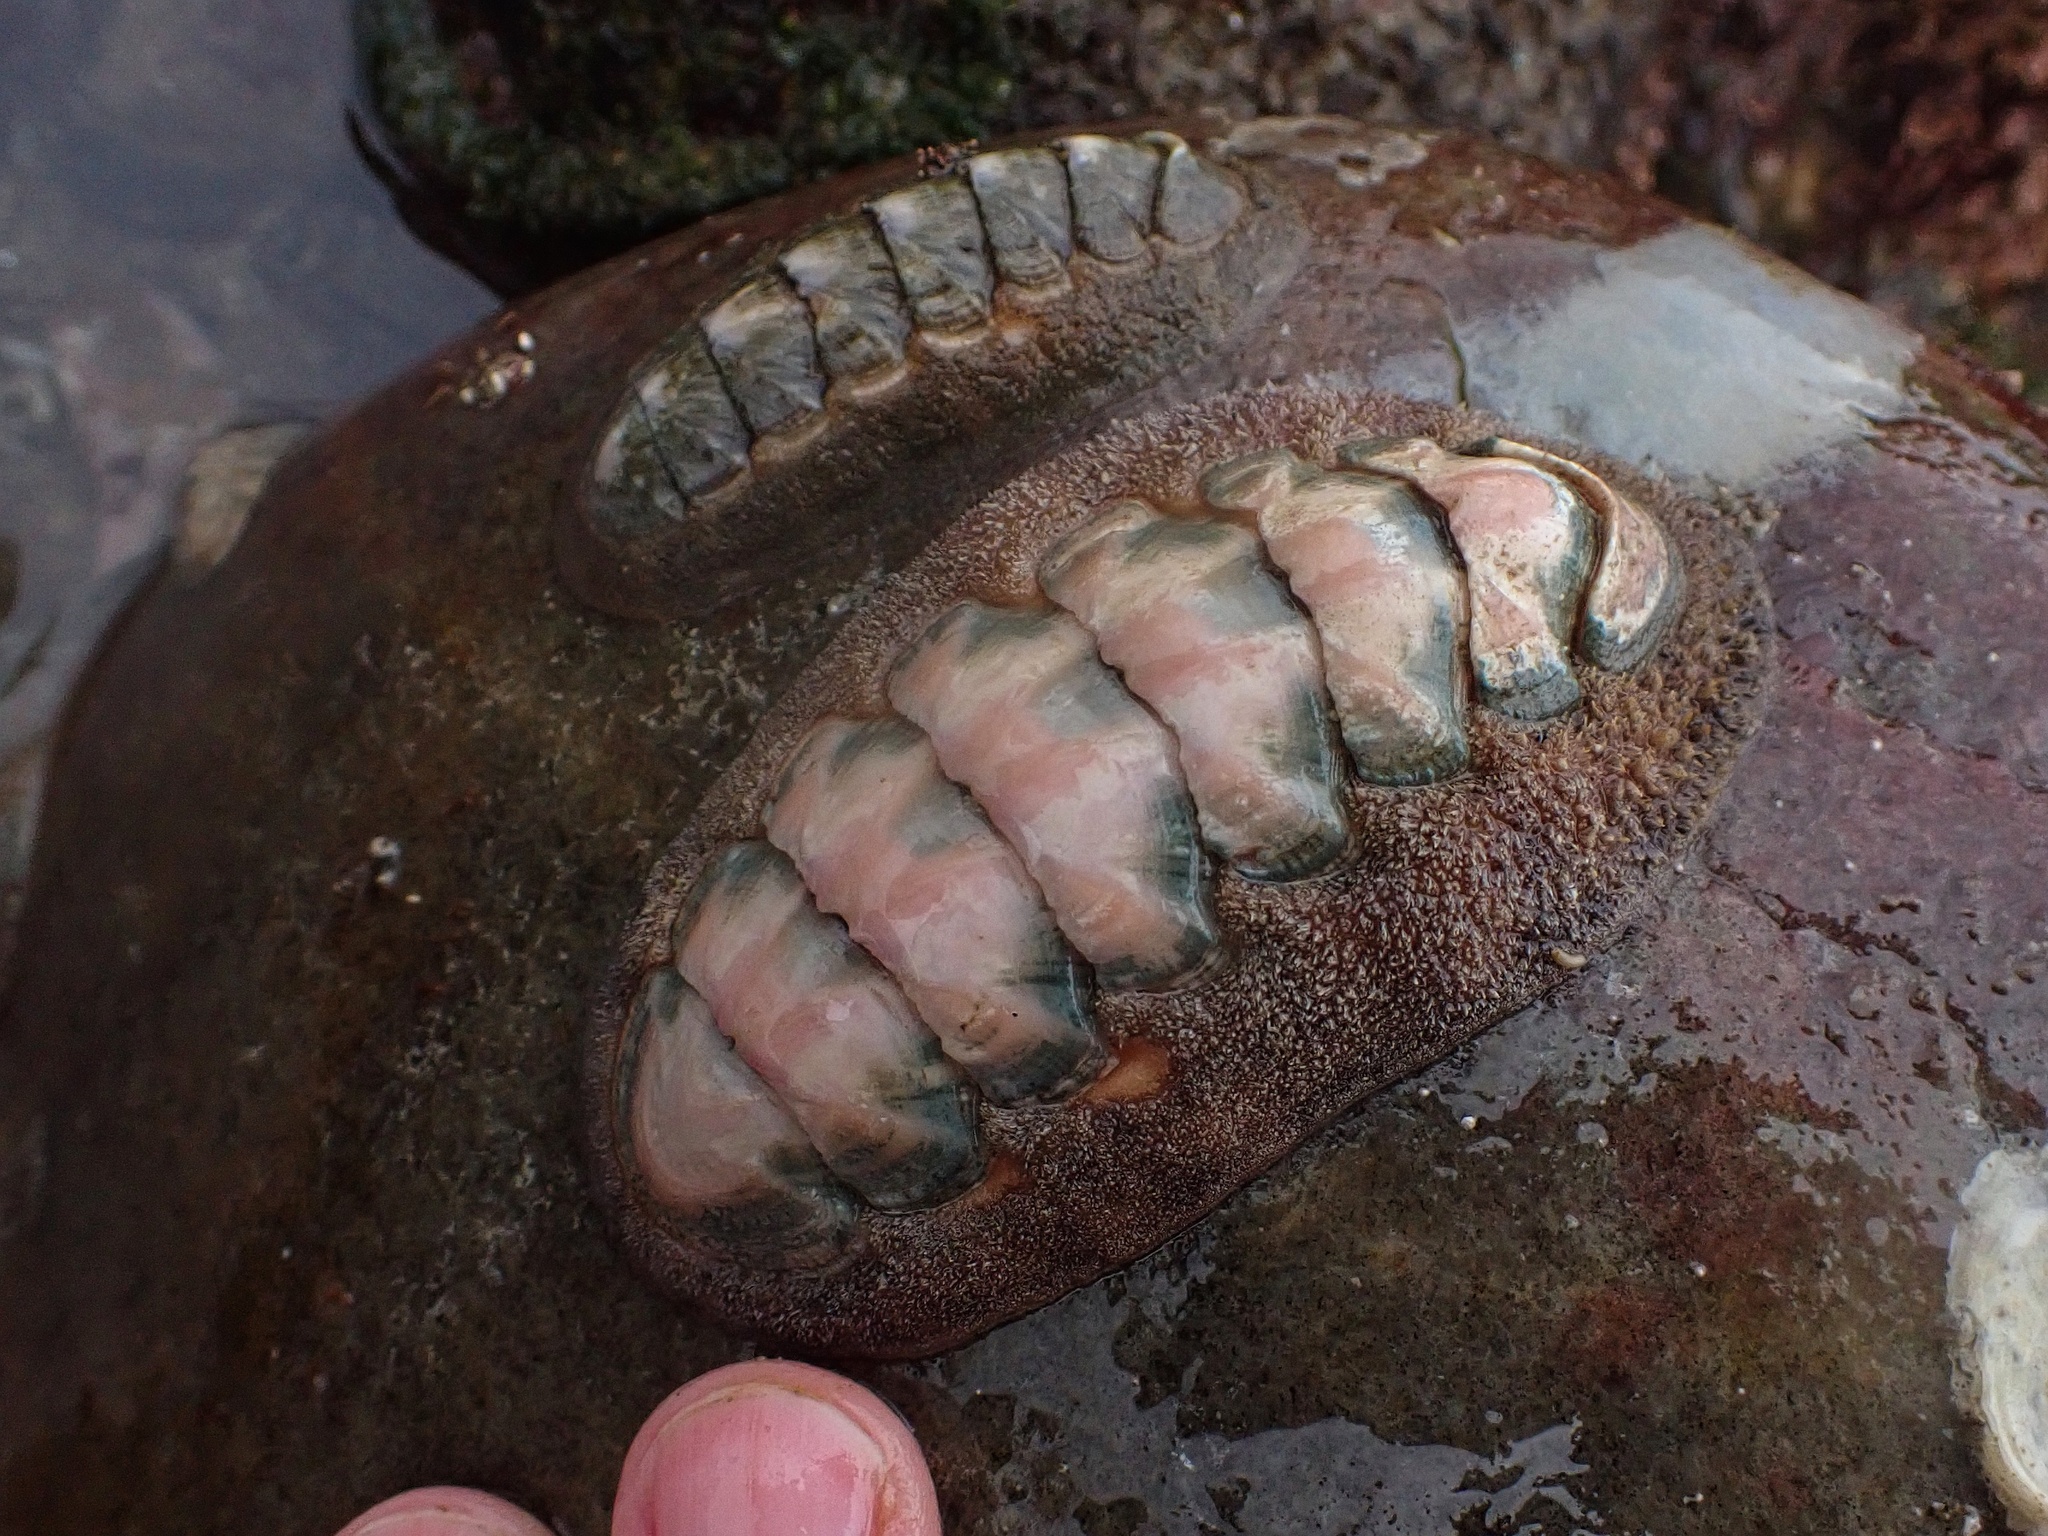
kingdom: Animalia
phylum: Mollusca
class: Polyplacophora
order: Chitonida
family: Ischnochitonidae
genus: Stenoplax
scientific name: Stenoplax conspicua
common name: Conspicuous chiton
